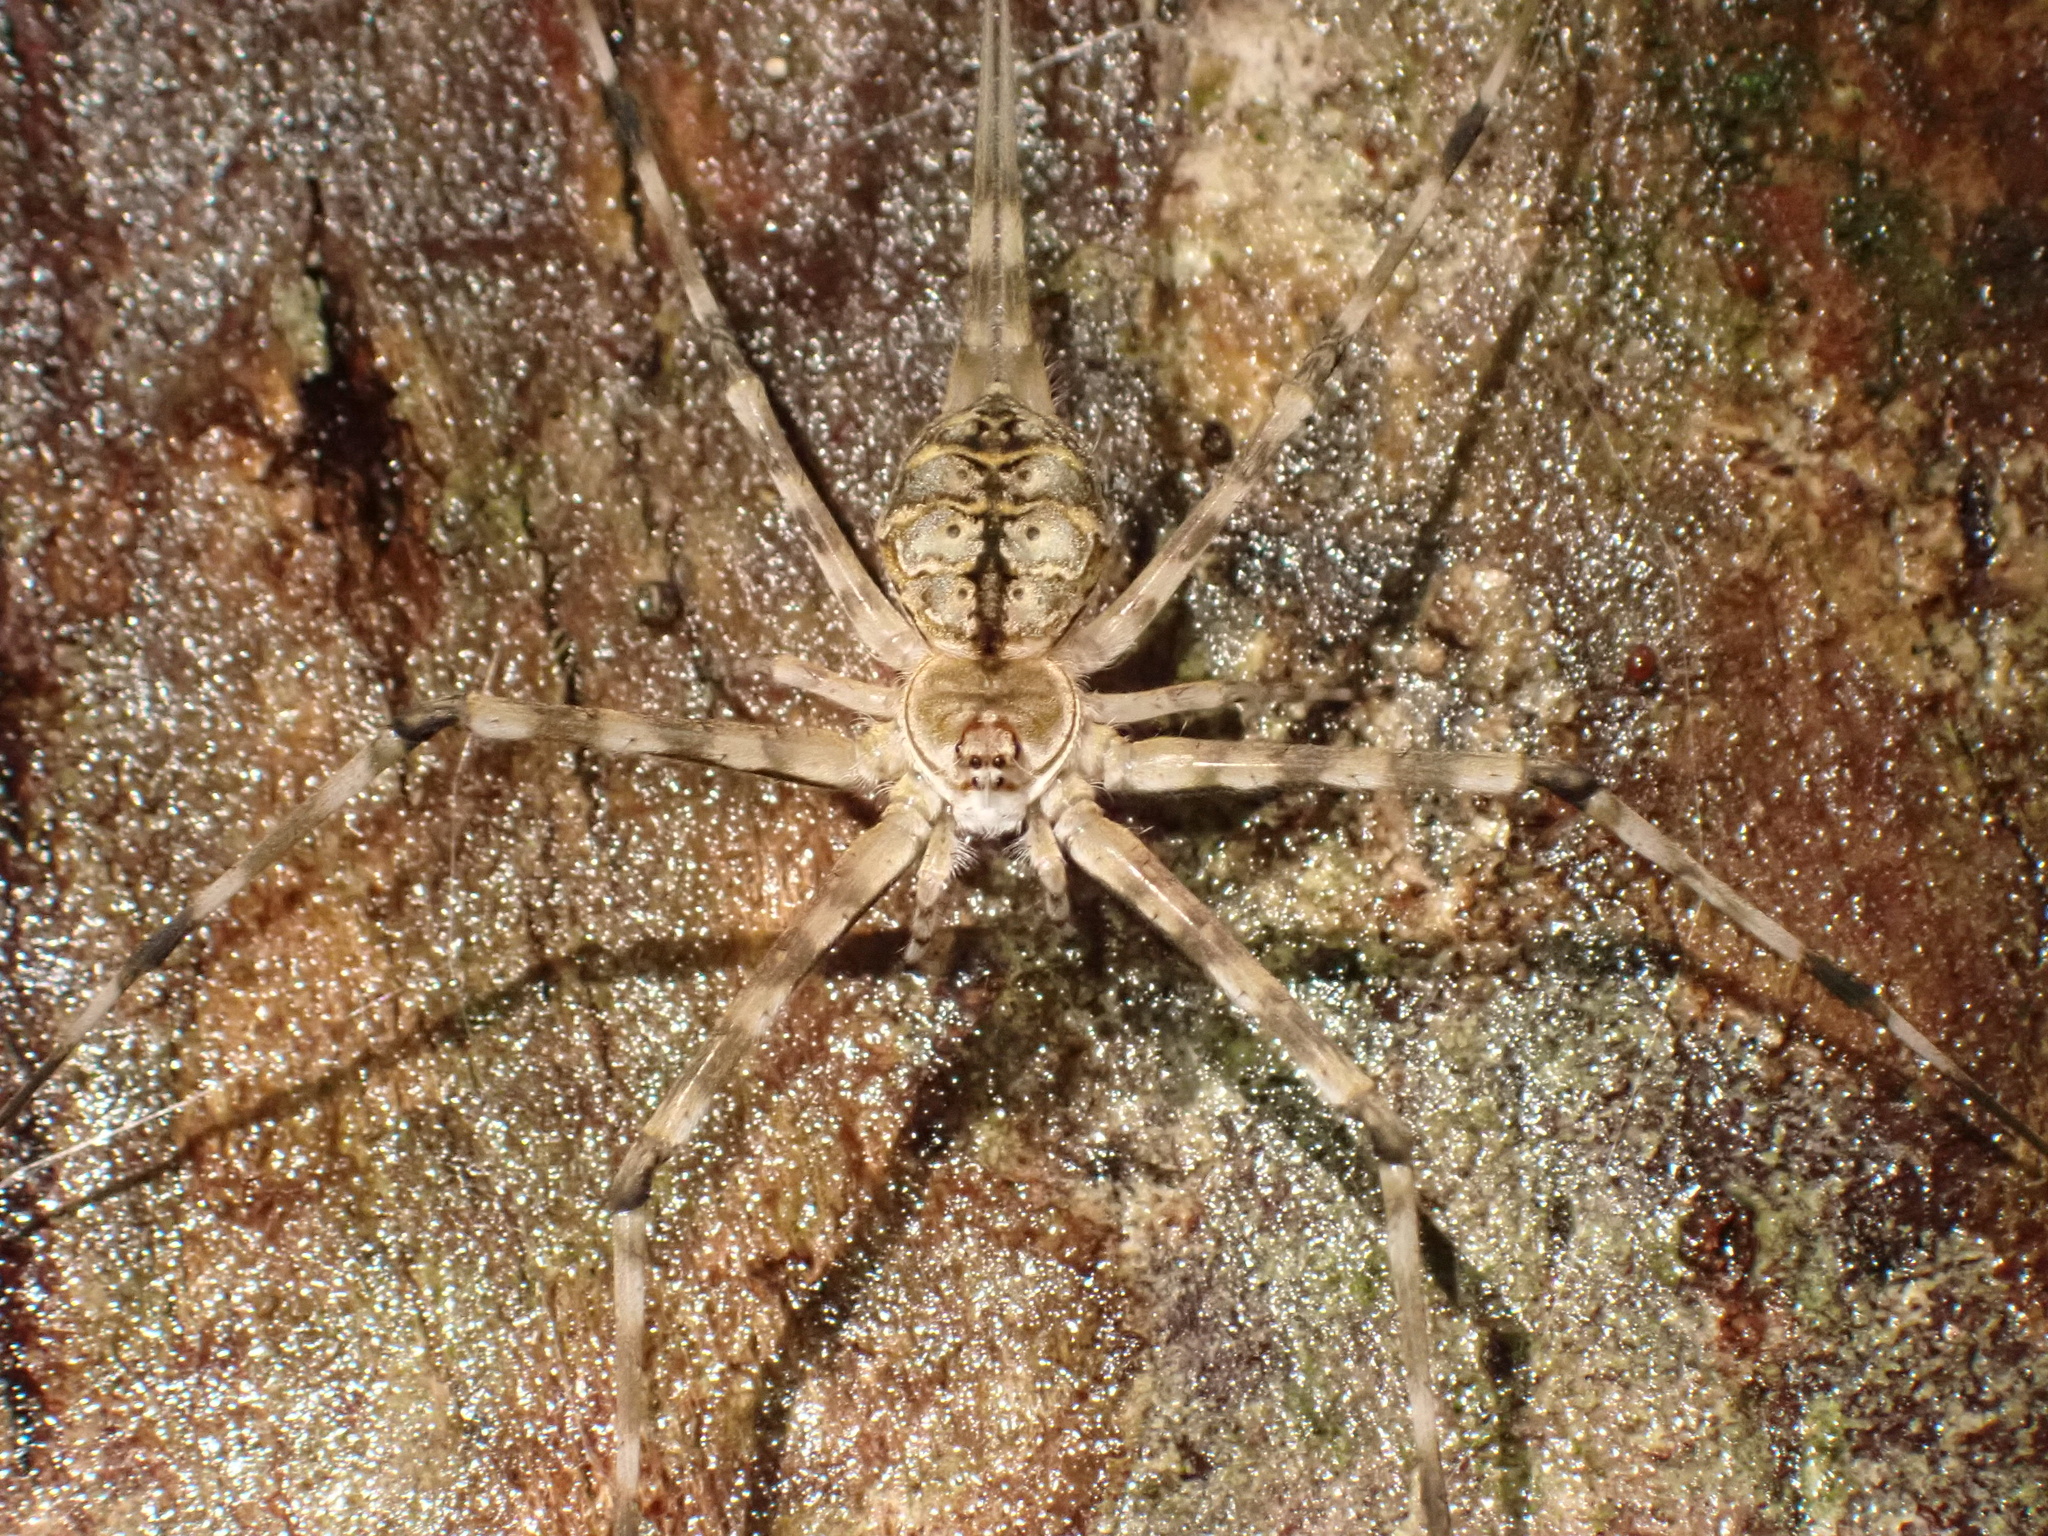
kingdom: Animalia
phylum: Arthropoda
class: Arachnida
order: Araneae
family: Hersiliidae
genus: Hersilia
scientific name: Hersilia sumatrana
